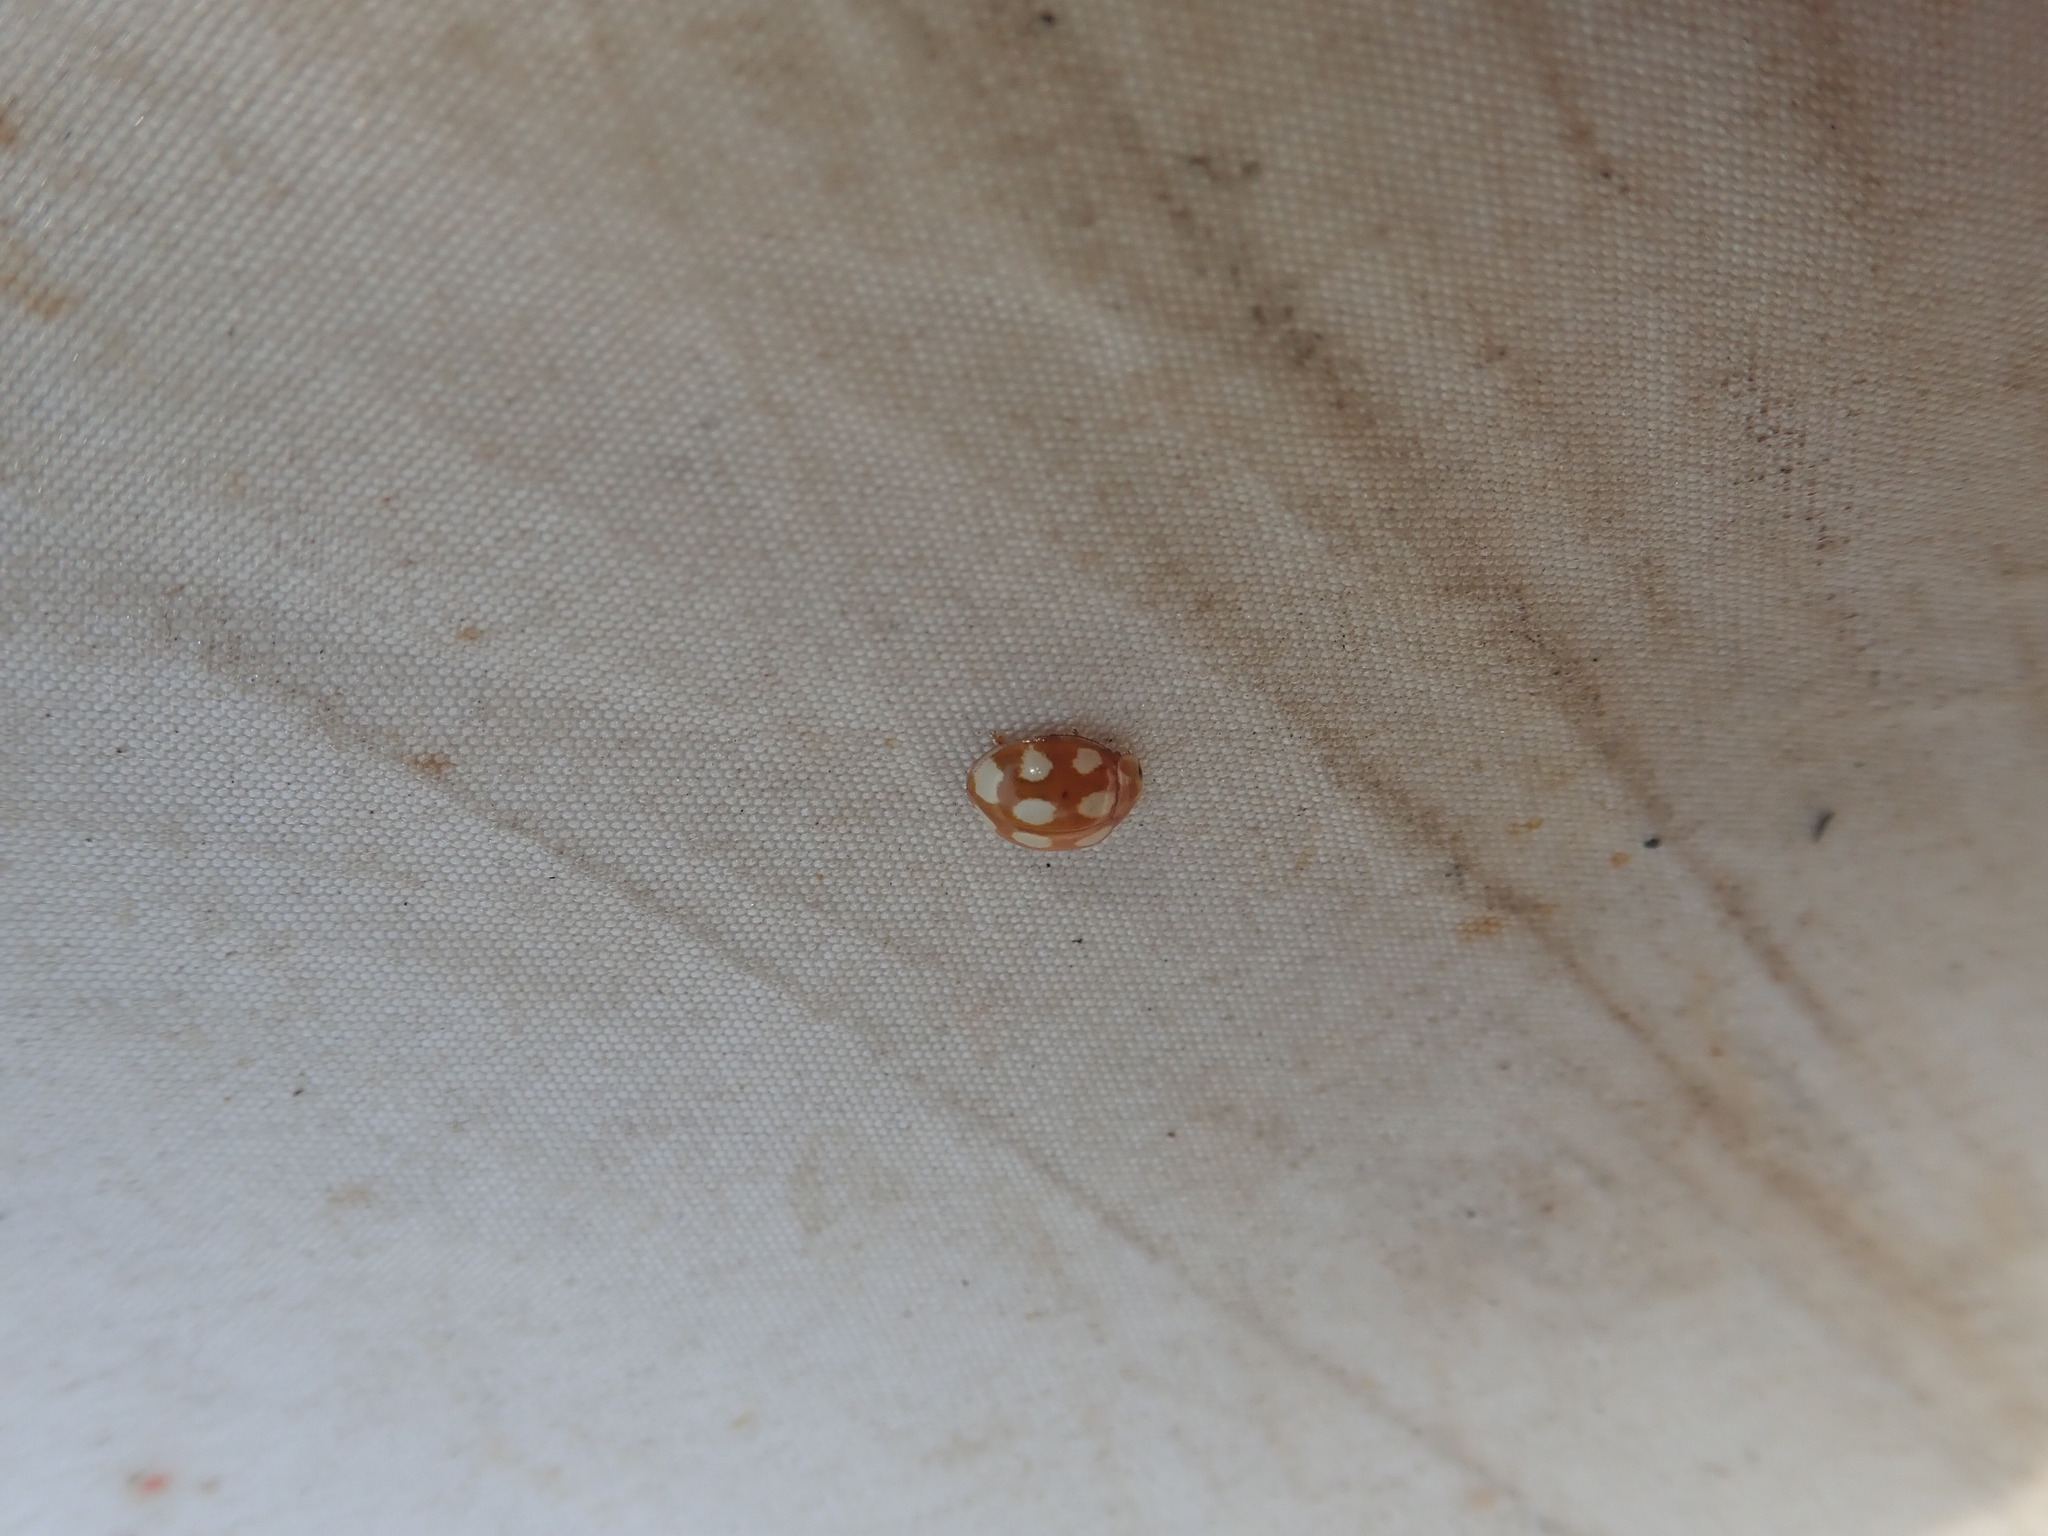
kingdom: Animalia
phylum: Arthropoda
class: Insecta
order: Coleoptera
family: Coccinellidae
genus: Calvia
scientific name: Calvia decemguttata
